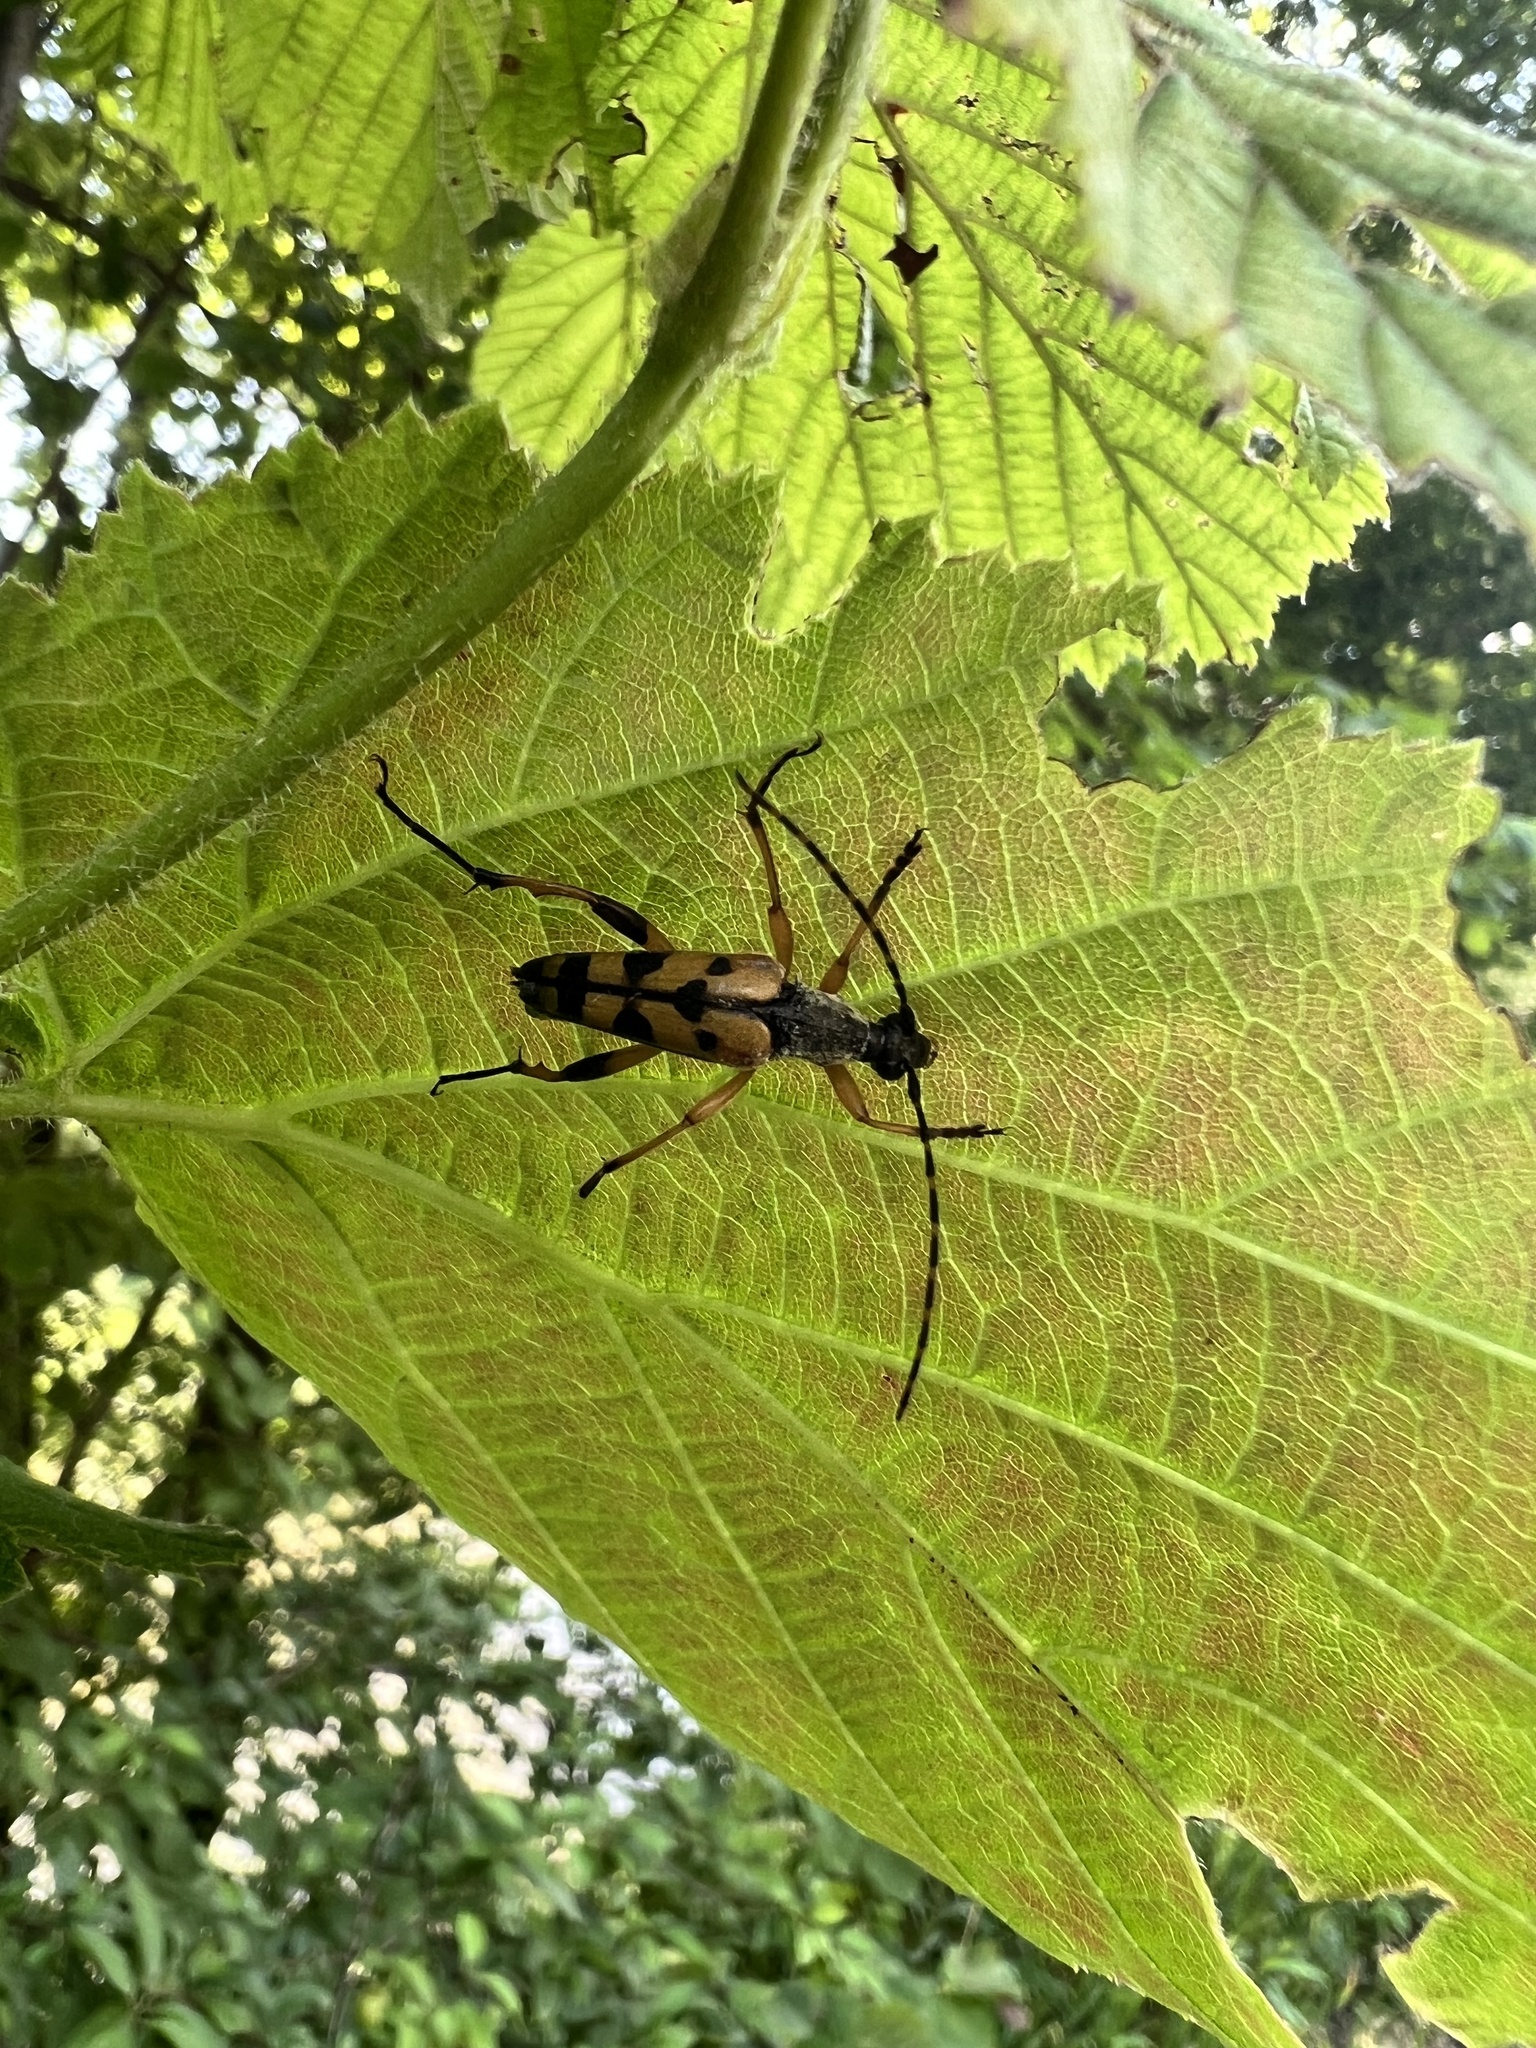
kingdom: Animalia
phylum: Arthropoda
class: Insecta
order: Coleoptera
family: Cerambycidae
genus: Rutpela
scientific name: Rutpela maculata
